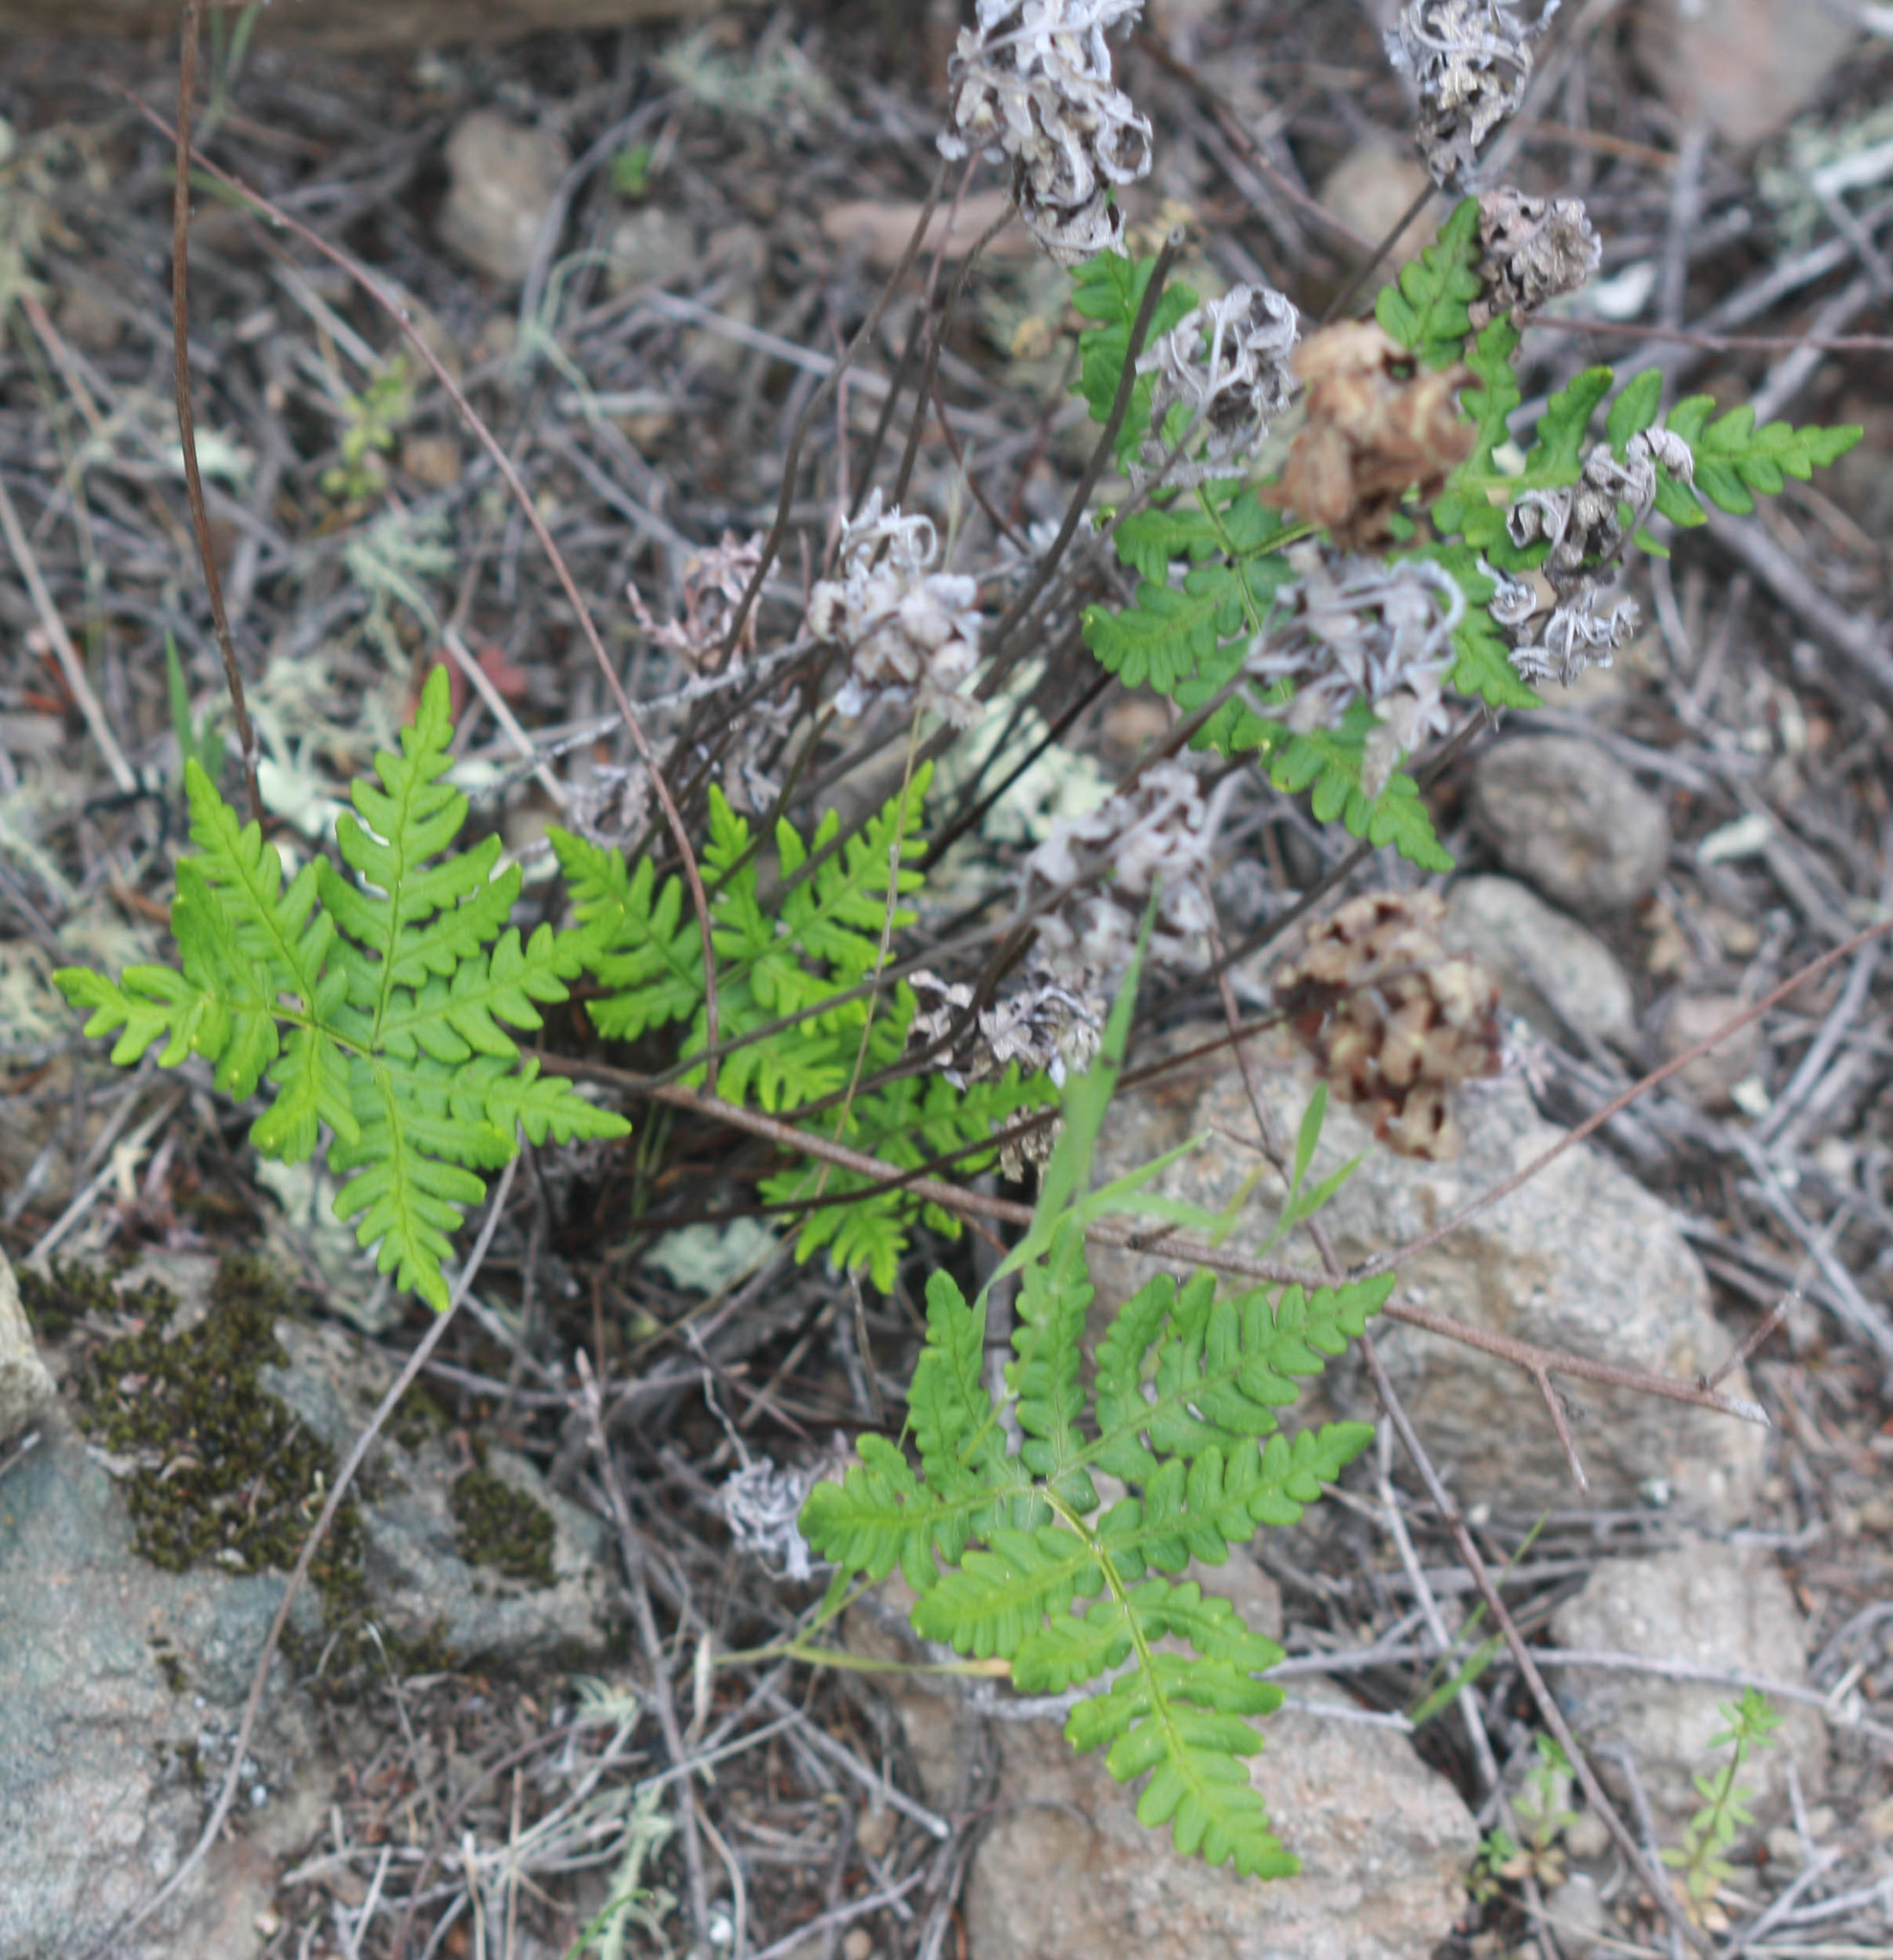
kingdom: Plantae
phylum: Tracheophyta
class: Polypodiopsida
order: Polypodiales
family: Pteridaceae
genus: Pentagramma
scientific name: Pentagramma triangularis
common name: Gold fern
